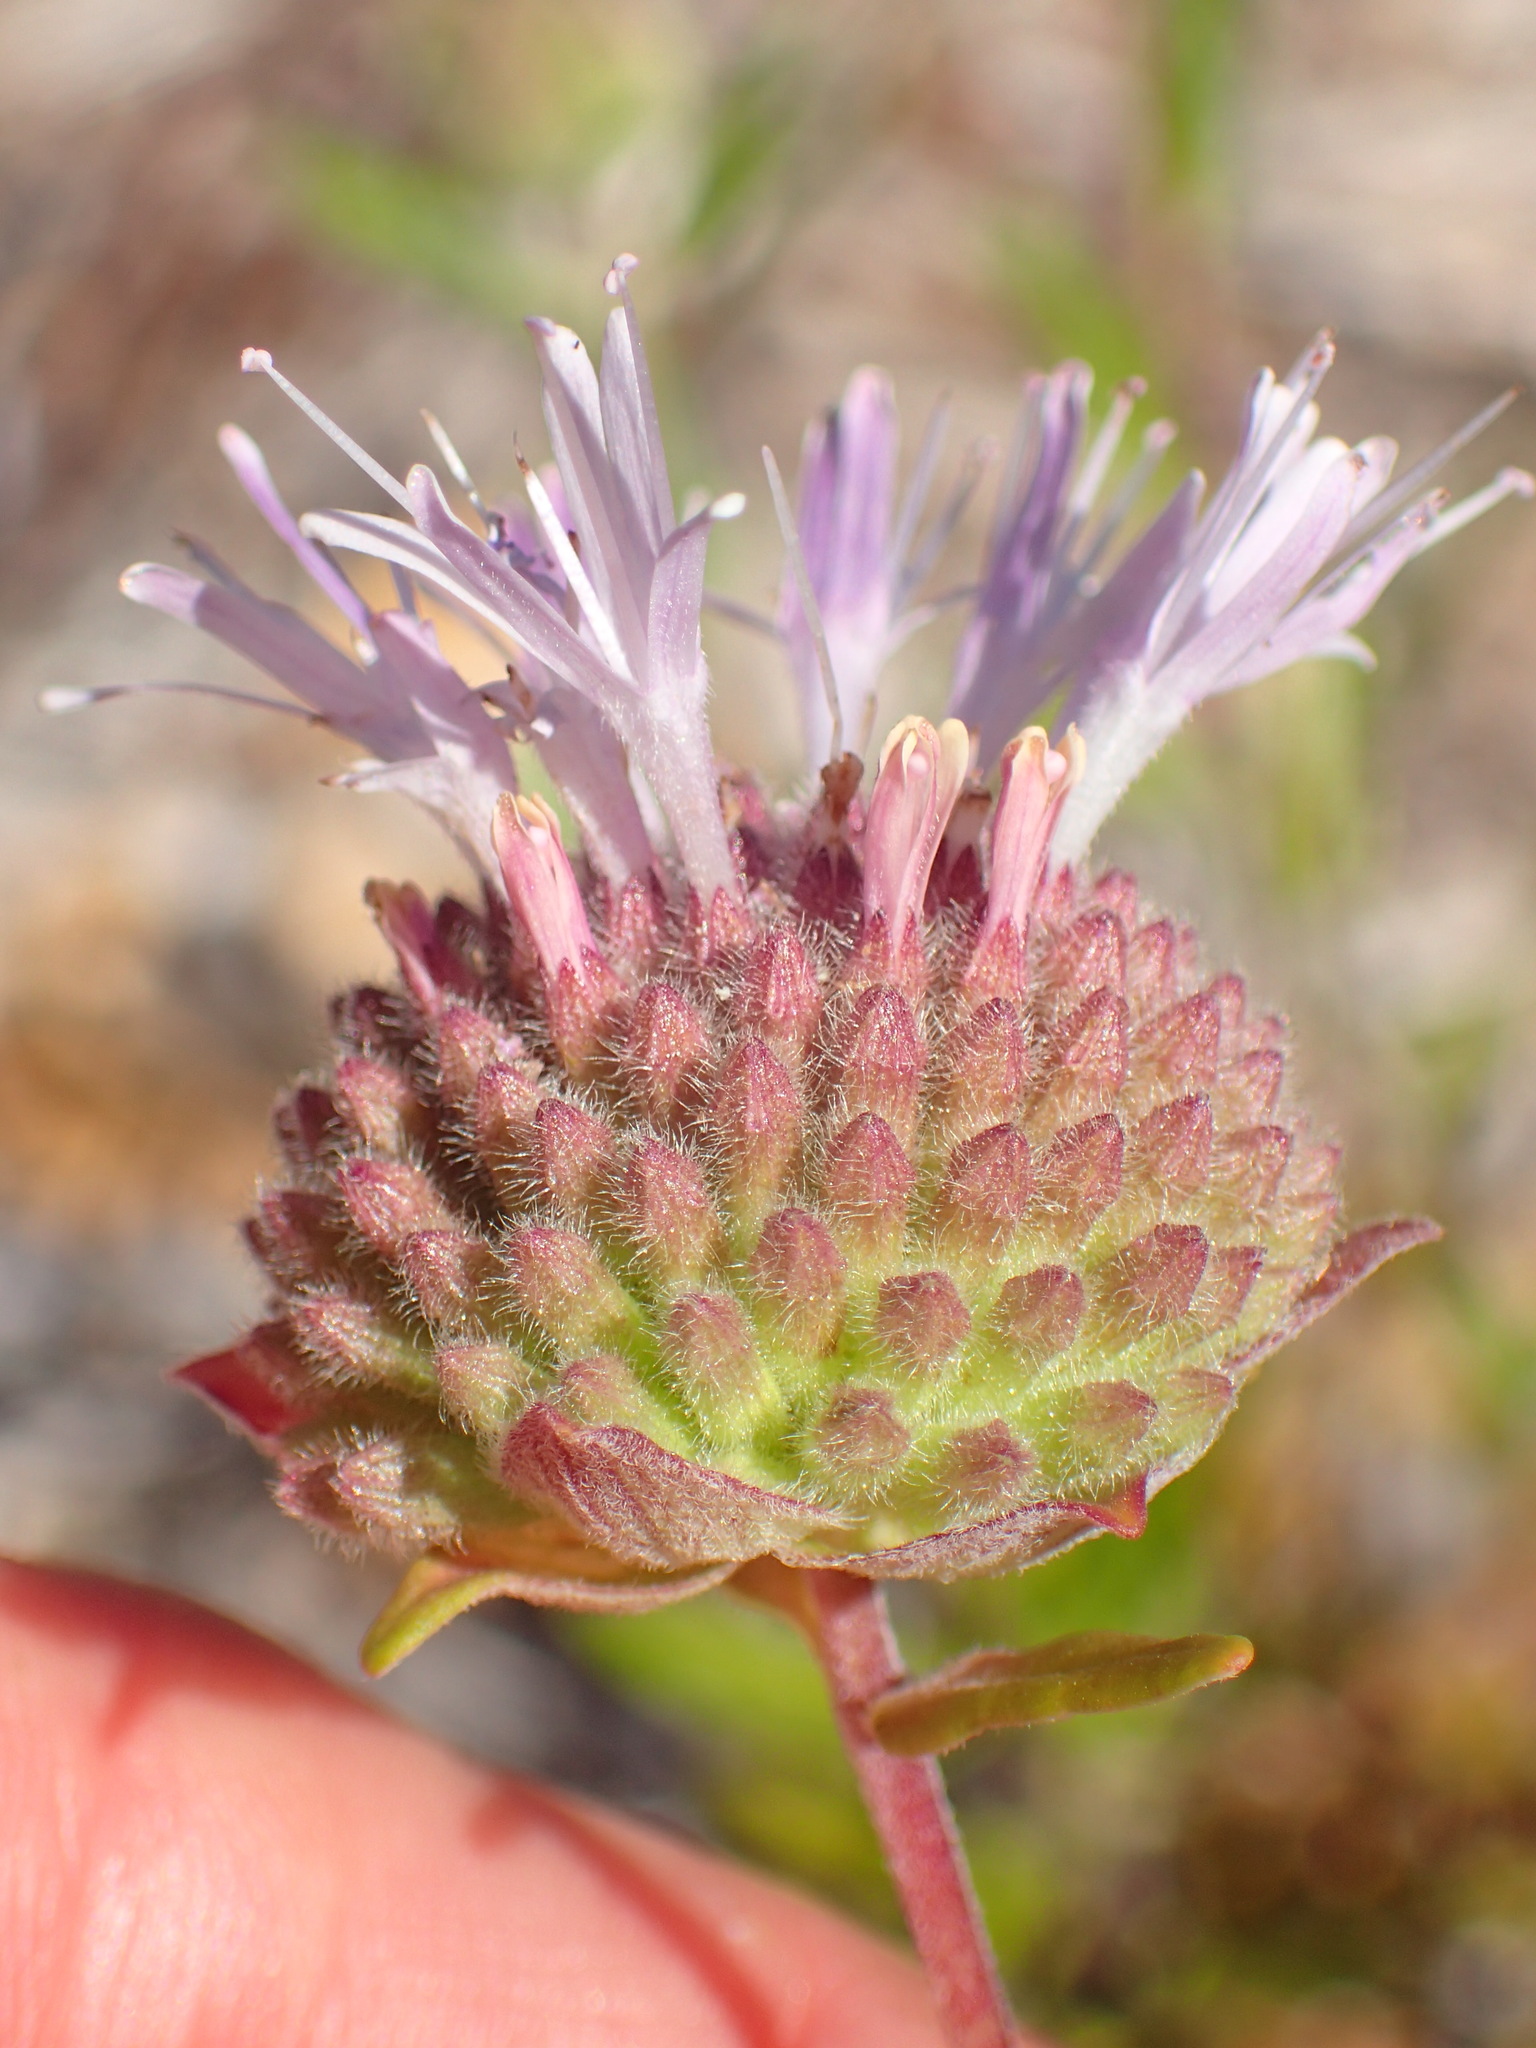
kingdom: Plantae
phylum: Tracheophyta
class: Magnoliopsida
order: Lamiales
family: Lamiaceae
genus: Monardella
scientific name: Monardella hypoleuca
